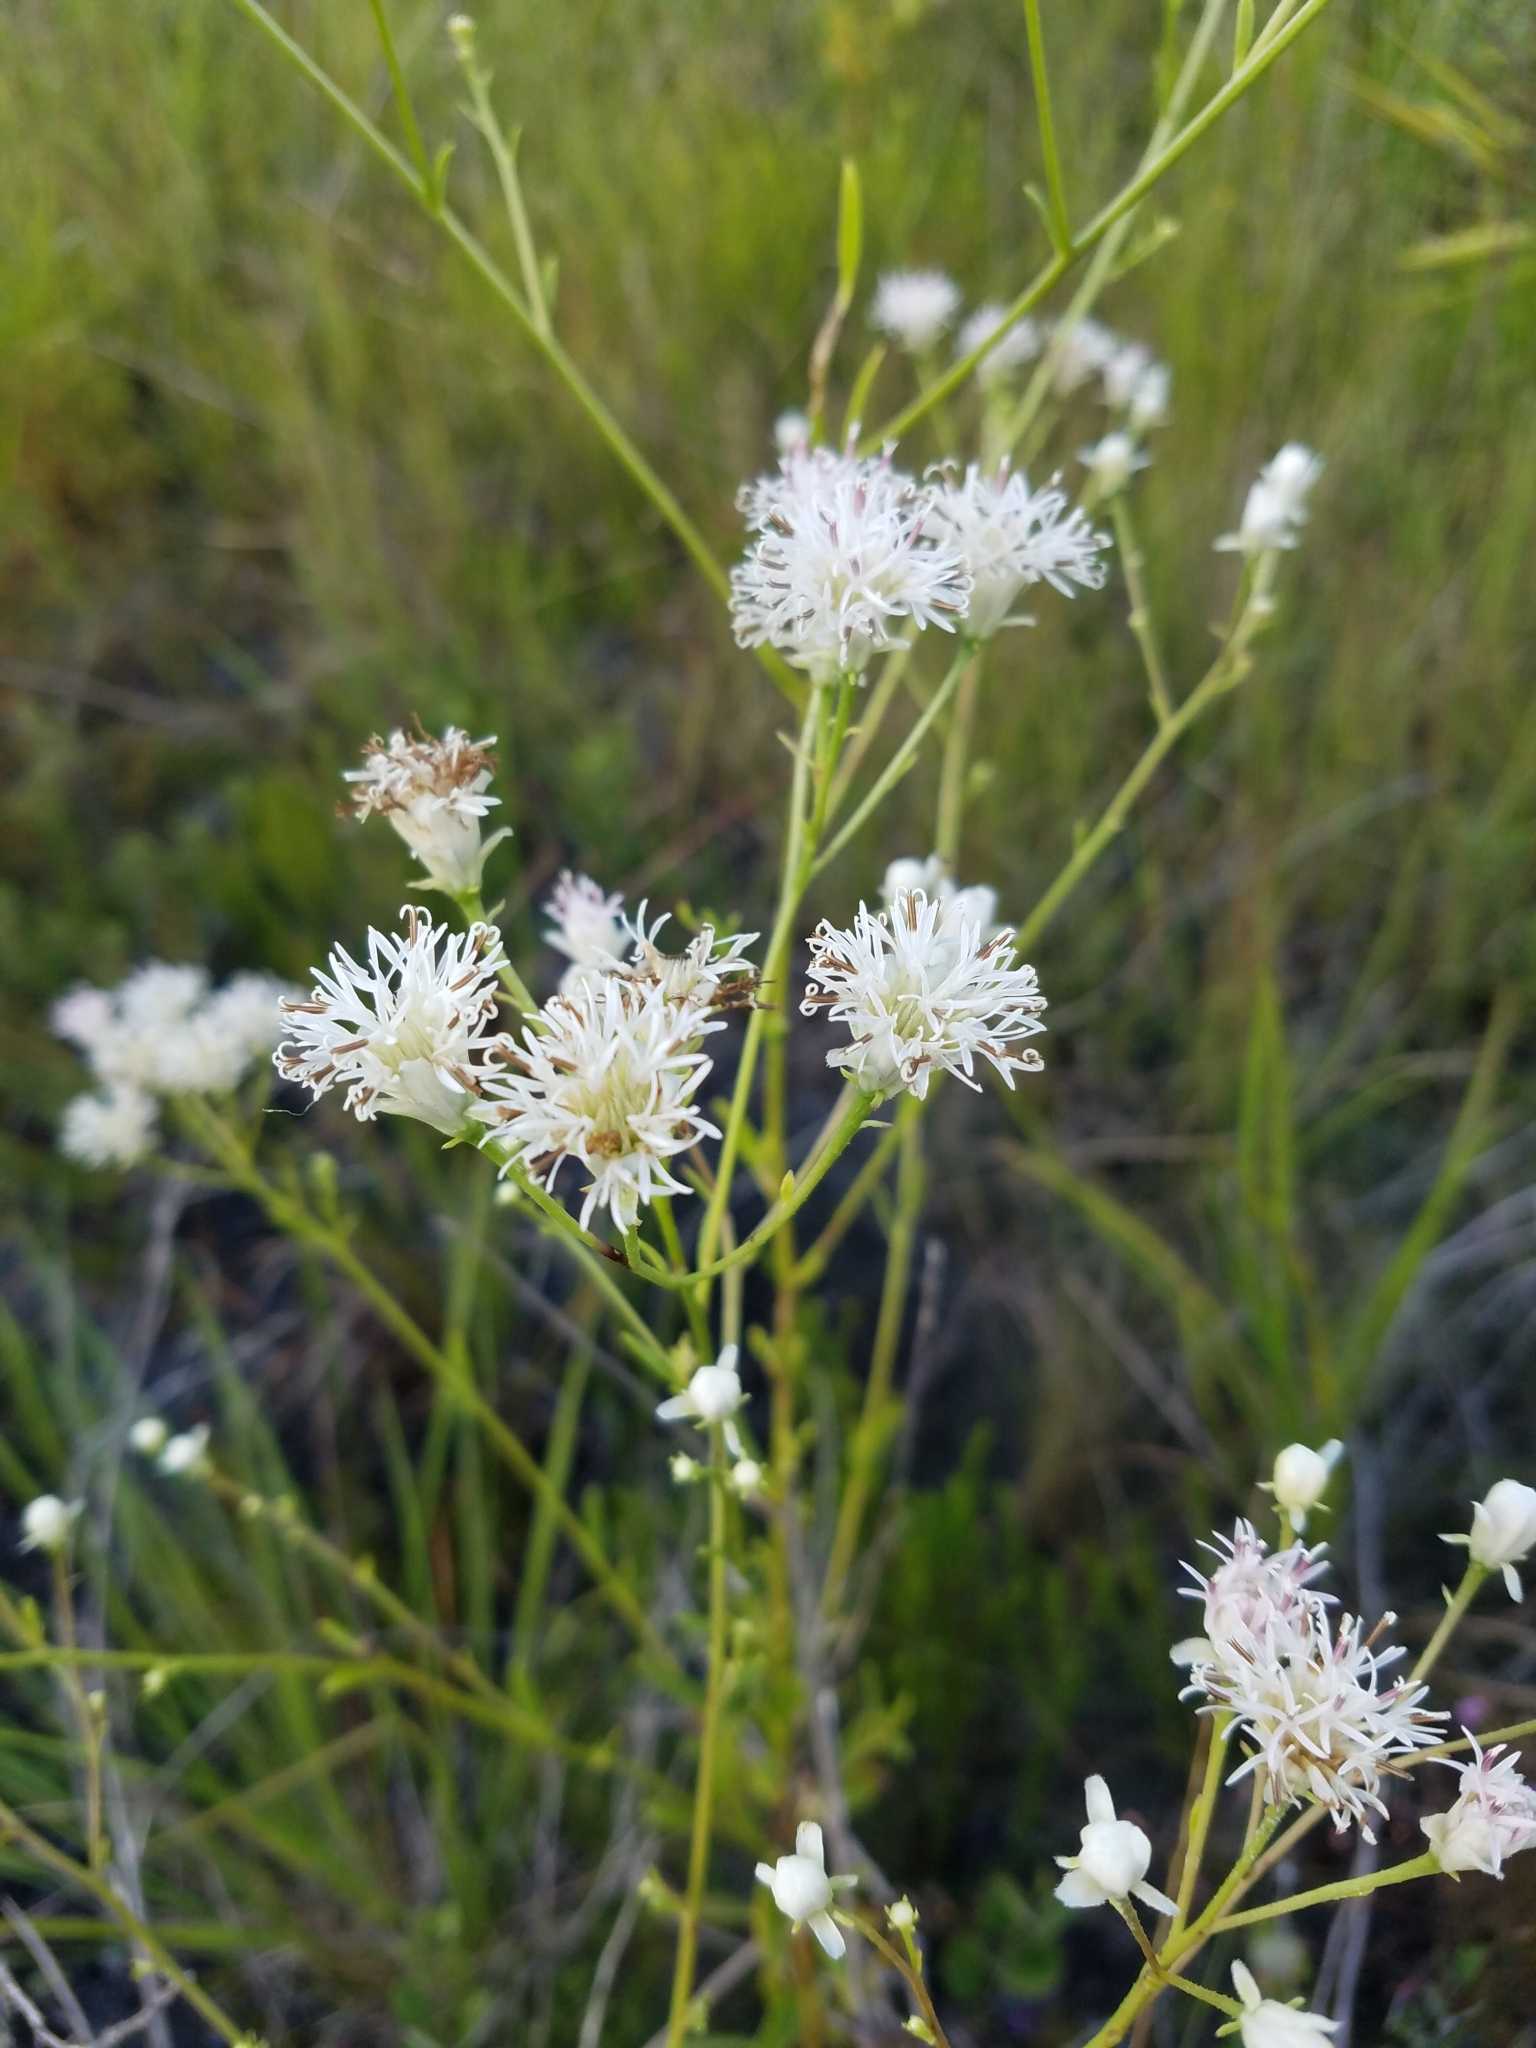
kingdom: Plantae
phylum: Tracheophyta
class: Magnoliopsida
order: Asterales
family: Asteraceae
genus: Palafoxia
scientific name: Palafoxia integrifolia
